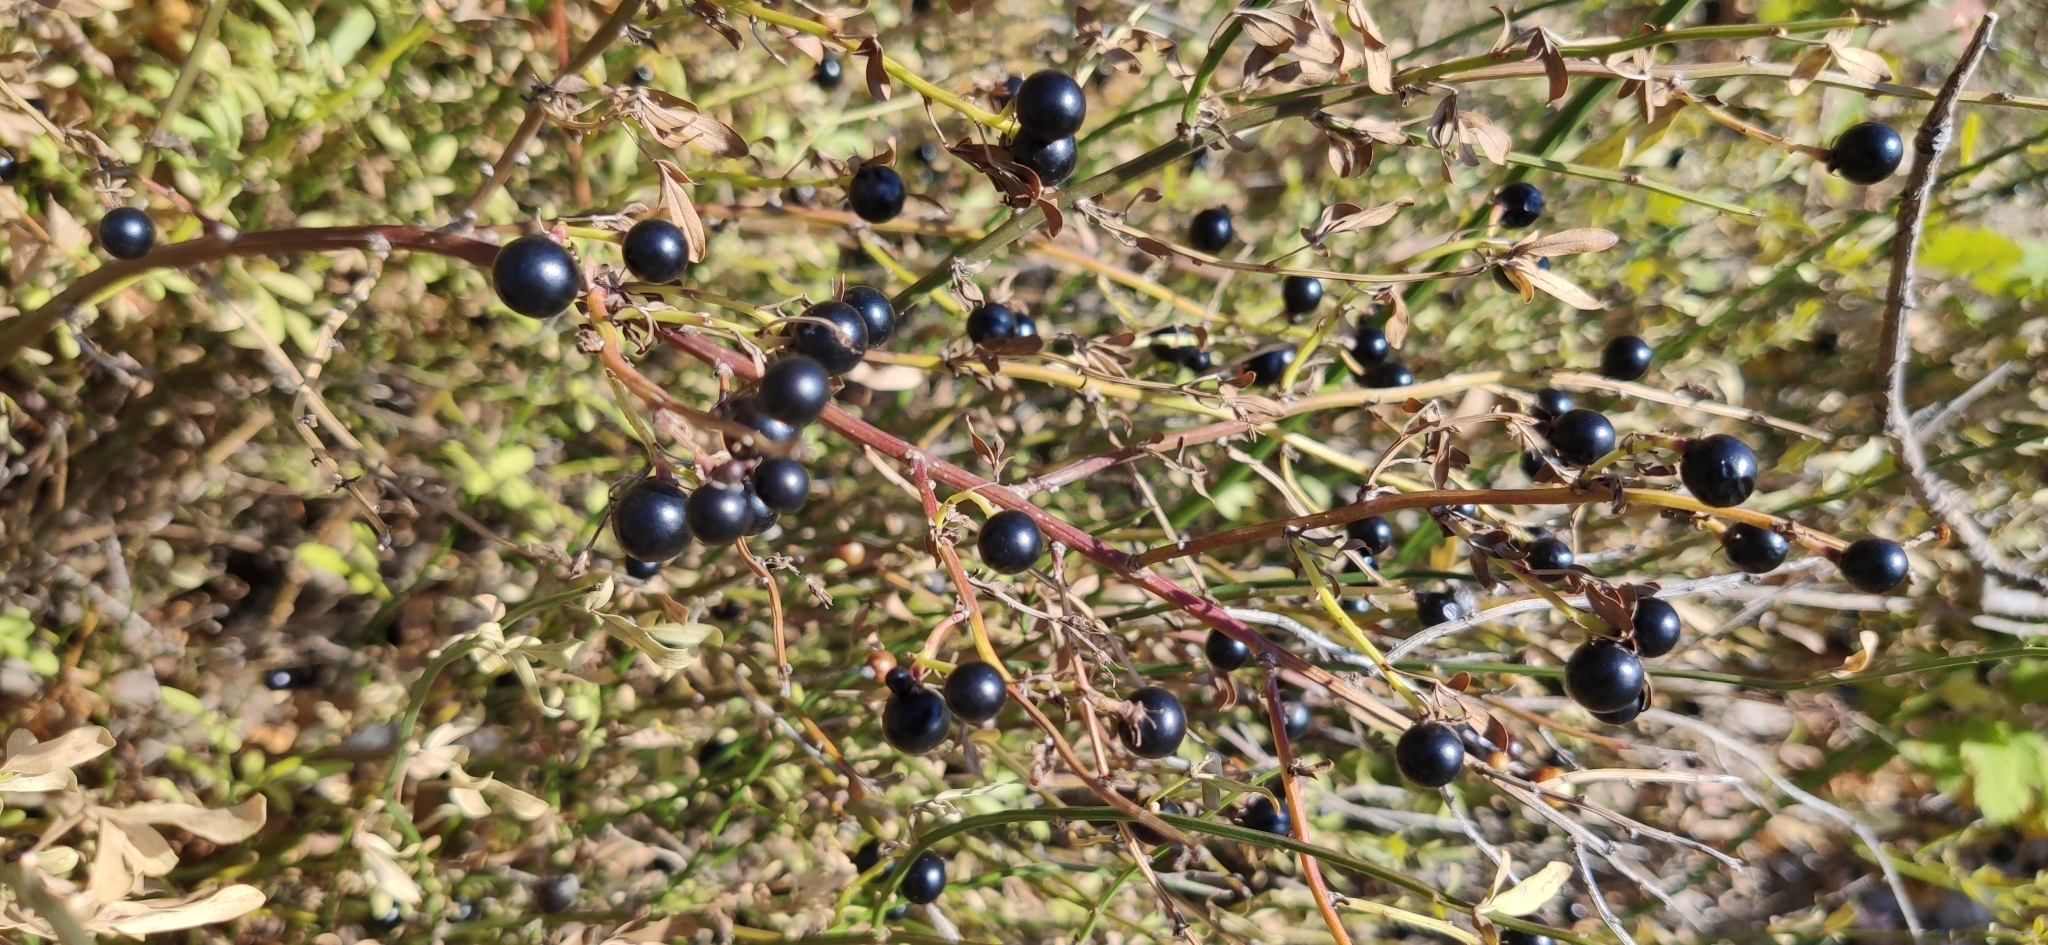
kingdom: Plantae
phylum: Tracheophyta
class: Magnoliopsida
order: Lamiales
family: Oleaceae
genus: Chrysojasminum
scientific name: Chrysojasminum fruticans
